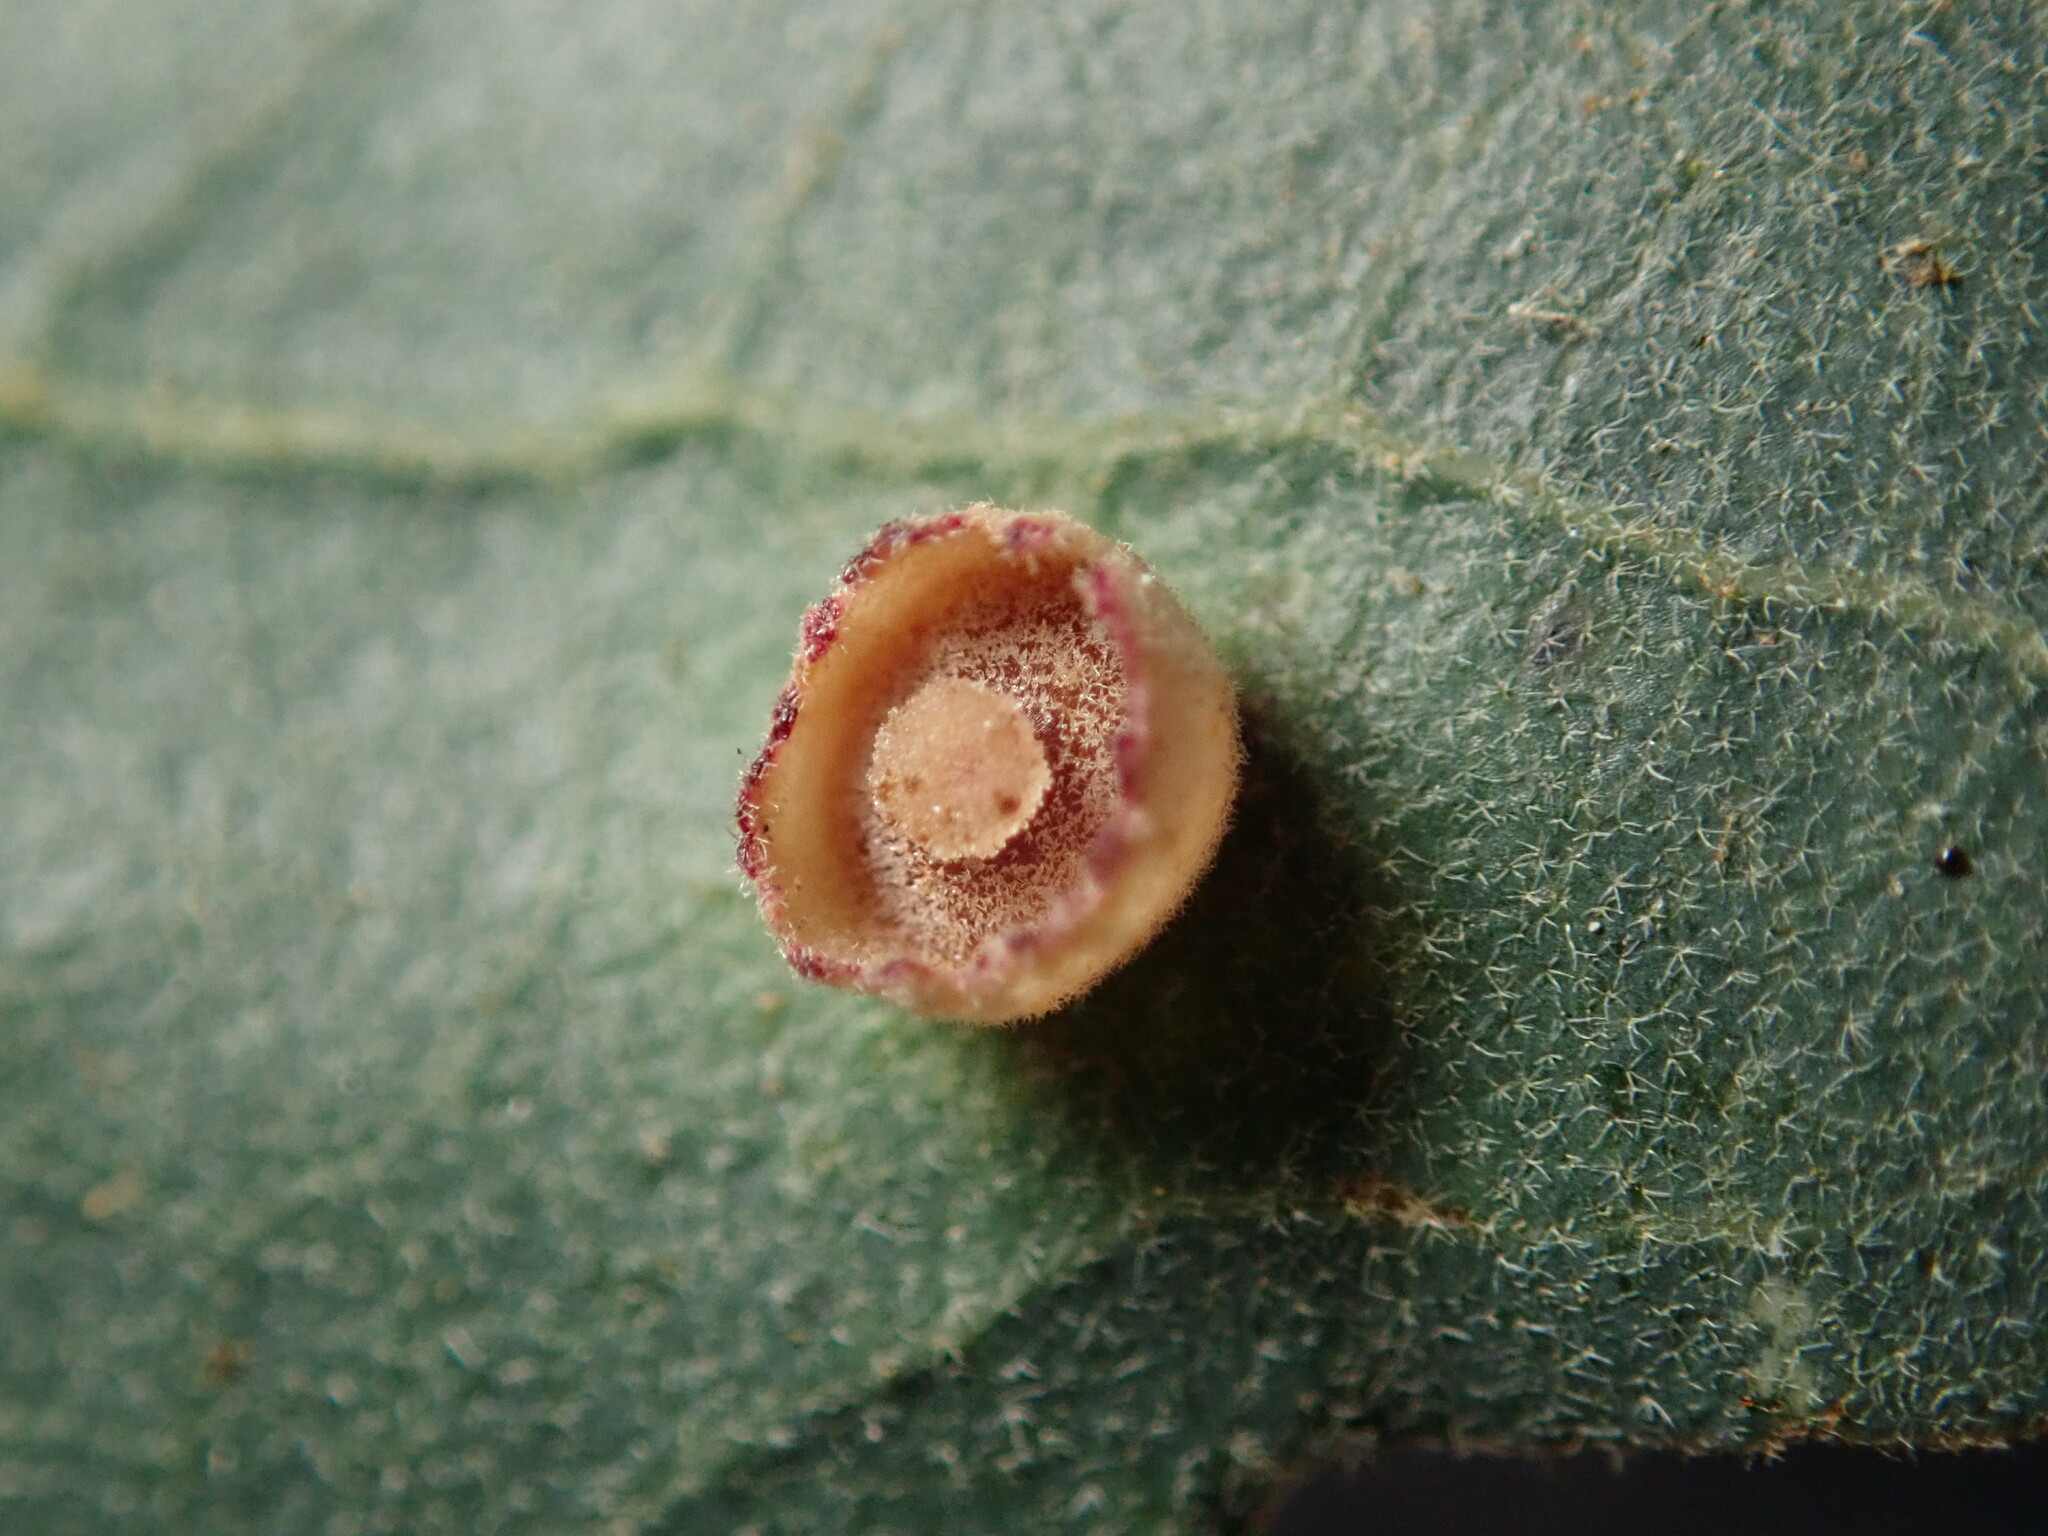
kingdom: Animalia
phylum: Arthropoda
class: Insecta
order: Hymenoptera
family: Cynipidae
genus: Andricus
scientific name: Andricus
